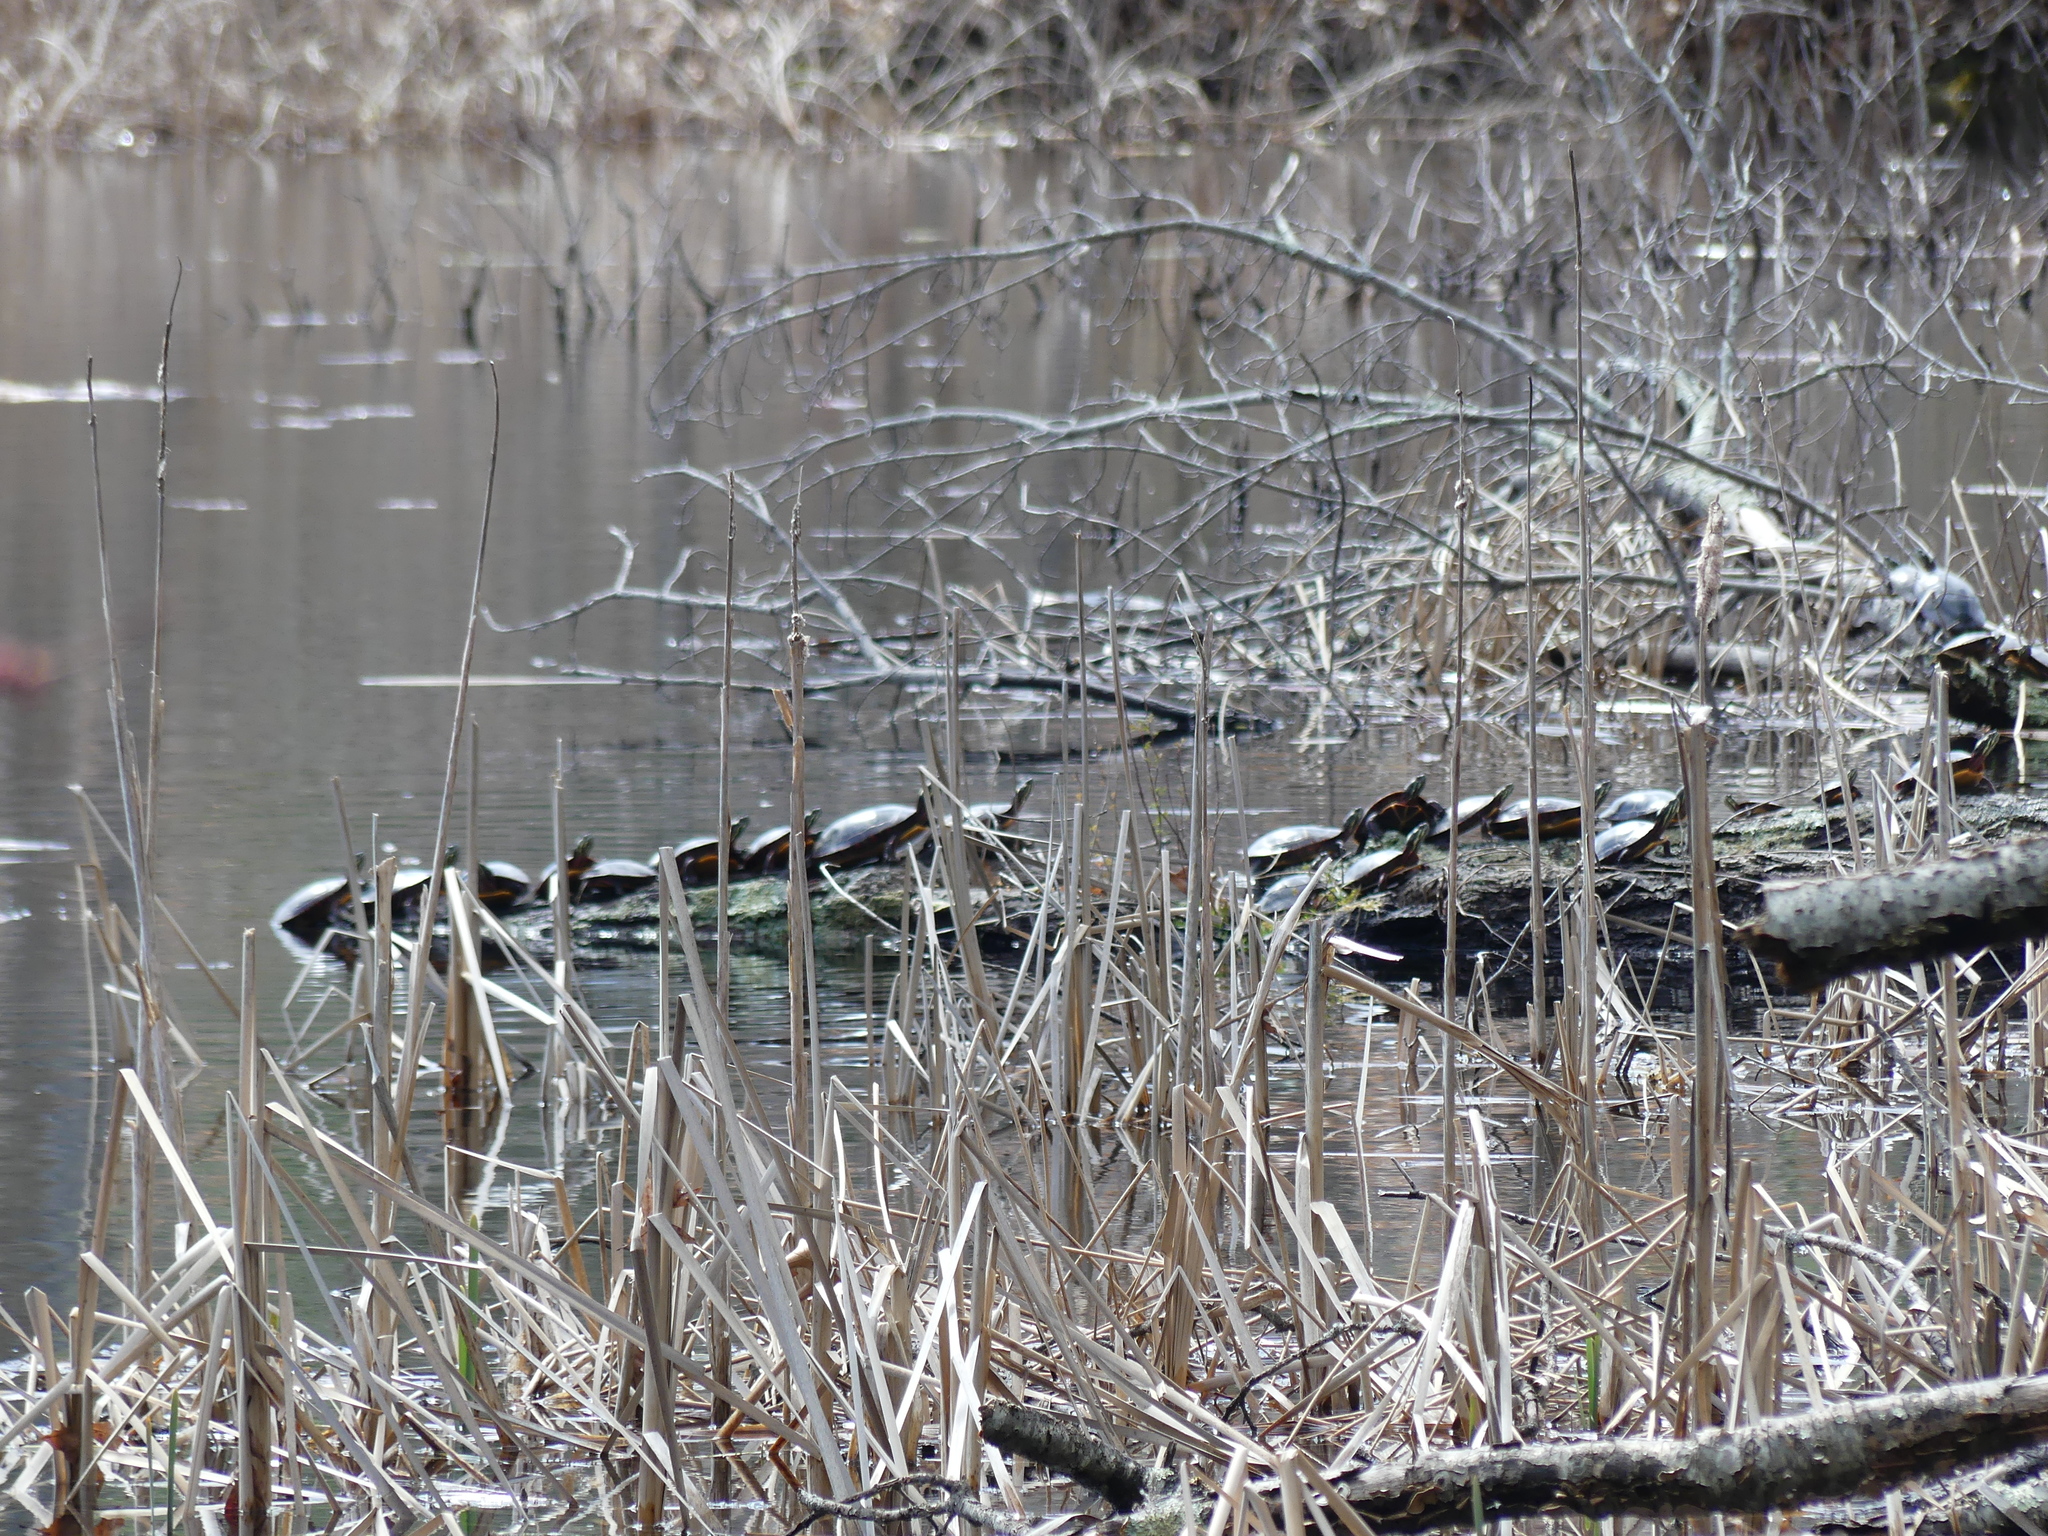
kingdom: Animalia
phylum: Chordata
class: Testudines
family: Emydidae
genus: Chrysemys
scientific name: Chrysemys picta
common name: Painted turtle
